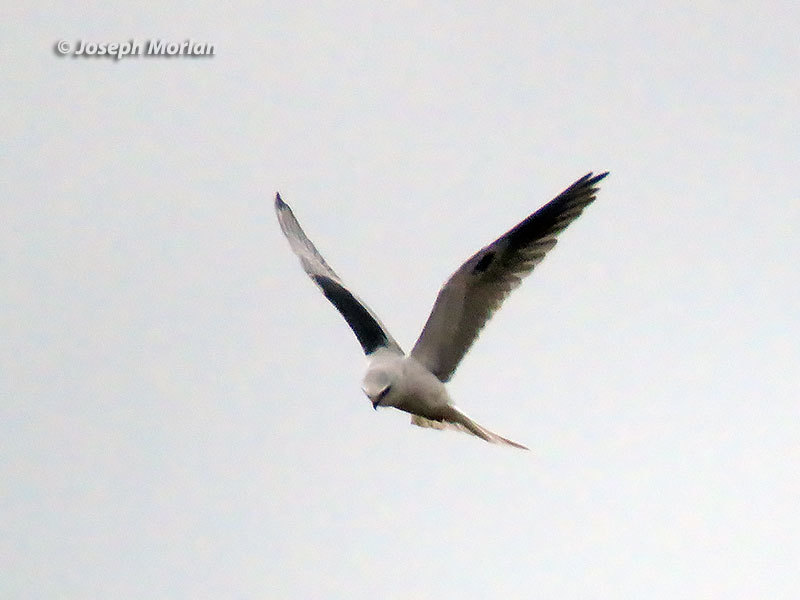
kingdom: Animalia
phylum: Chordata
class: Aves
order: Accipitriformes
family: Accipitridae
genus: Elanus
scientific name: Elanus leucurus
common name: White-tailed kite
